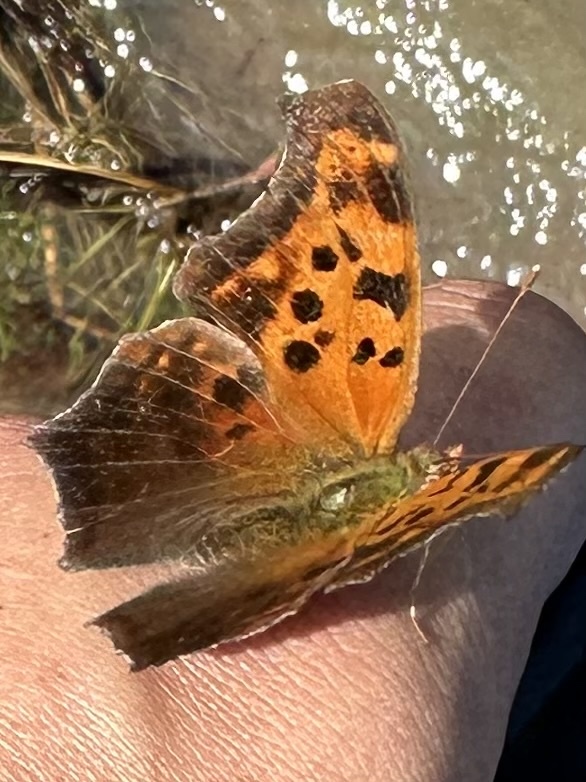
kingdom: Animalia
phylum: Arthropoda
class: Insecta
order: Lepidoptera
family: Nymphalidae
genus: Polygonia
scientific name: Polygonia interrogationis
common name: Question mark
